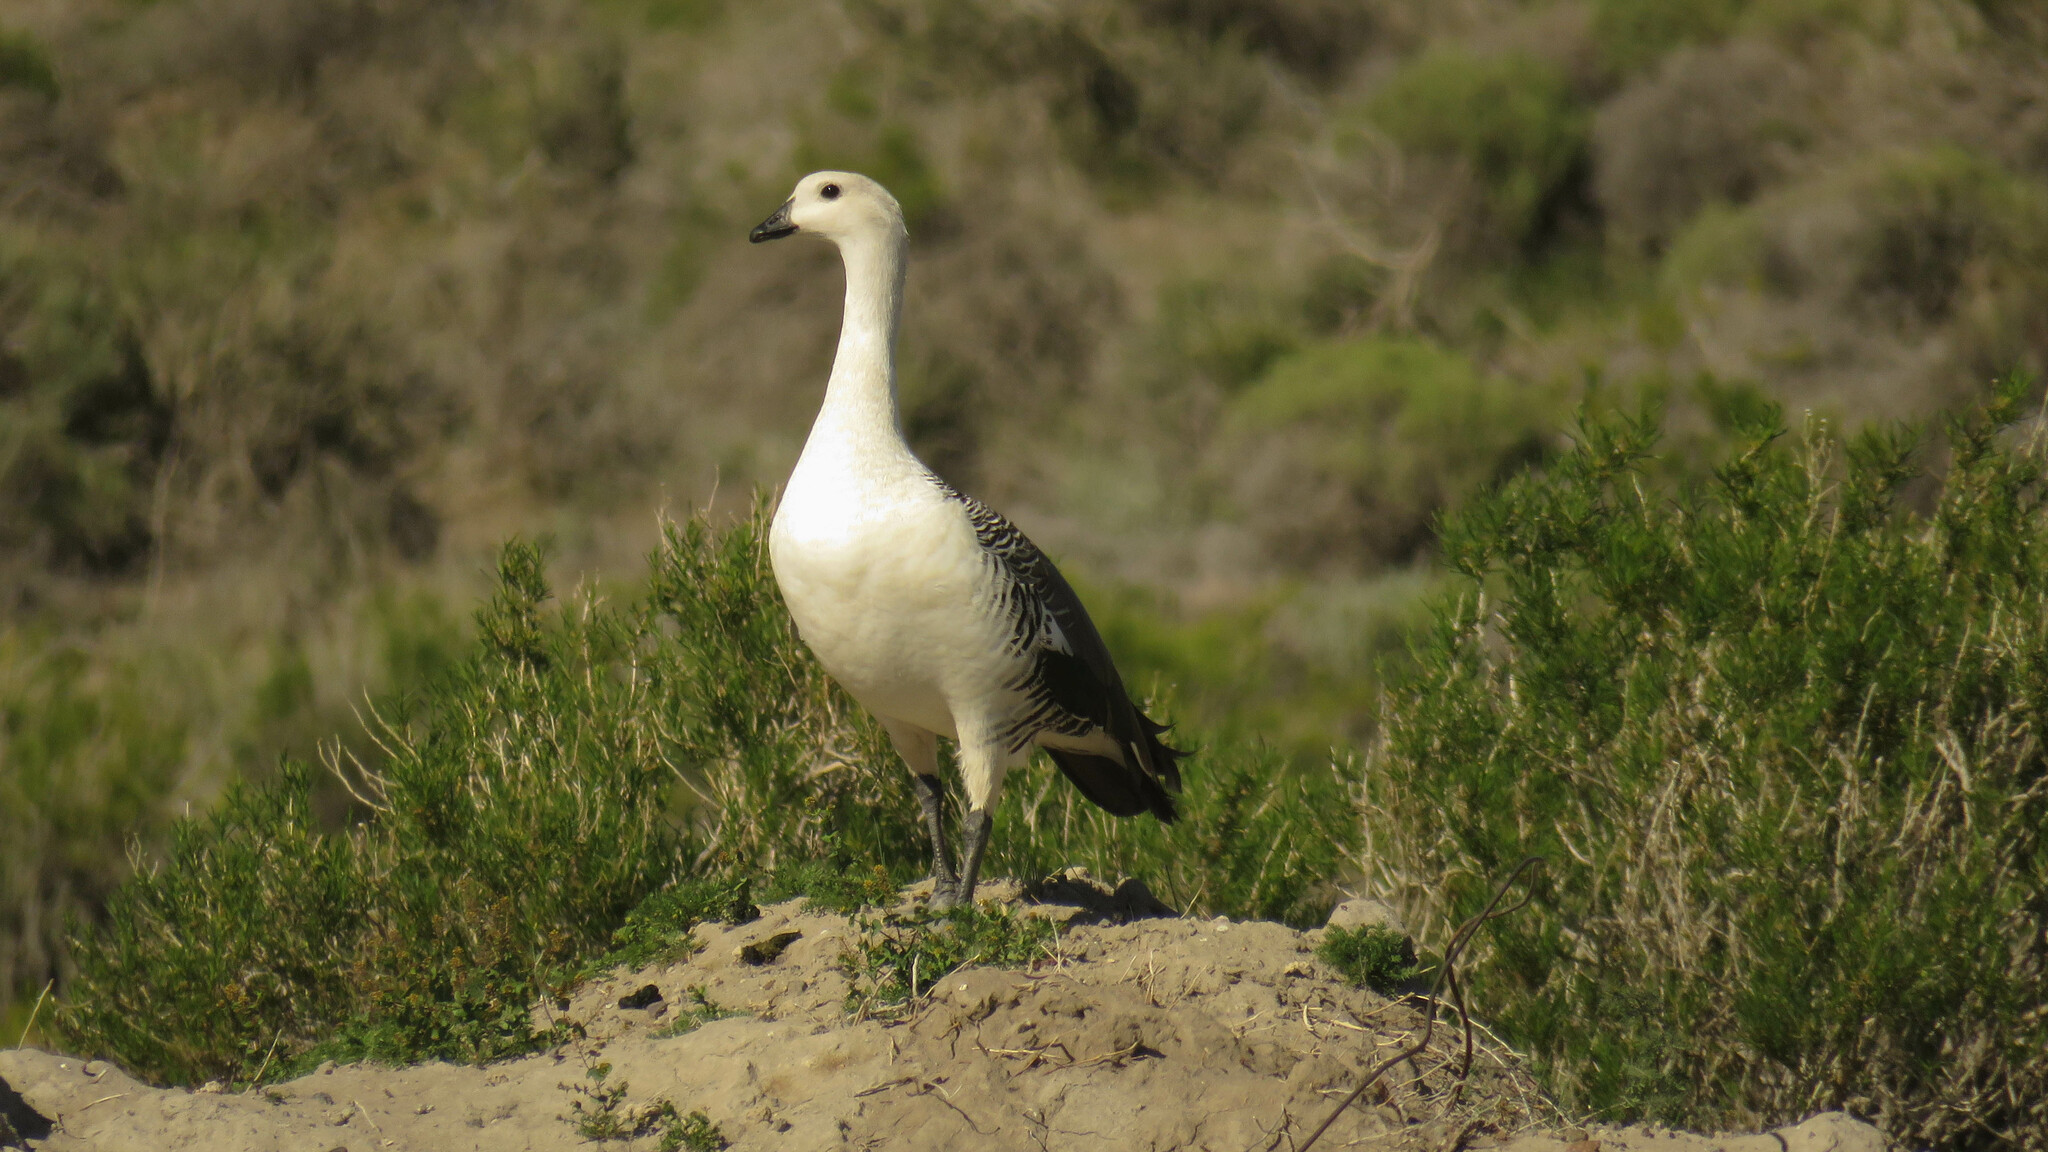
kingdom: Animalia
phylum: Chordata
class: Aves
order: Anseriformes
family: Anatidae
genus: Chloephaga
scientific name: Chloephaga picta
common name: Upland goose
